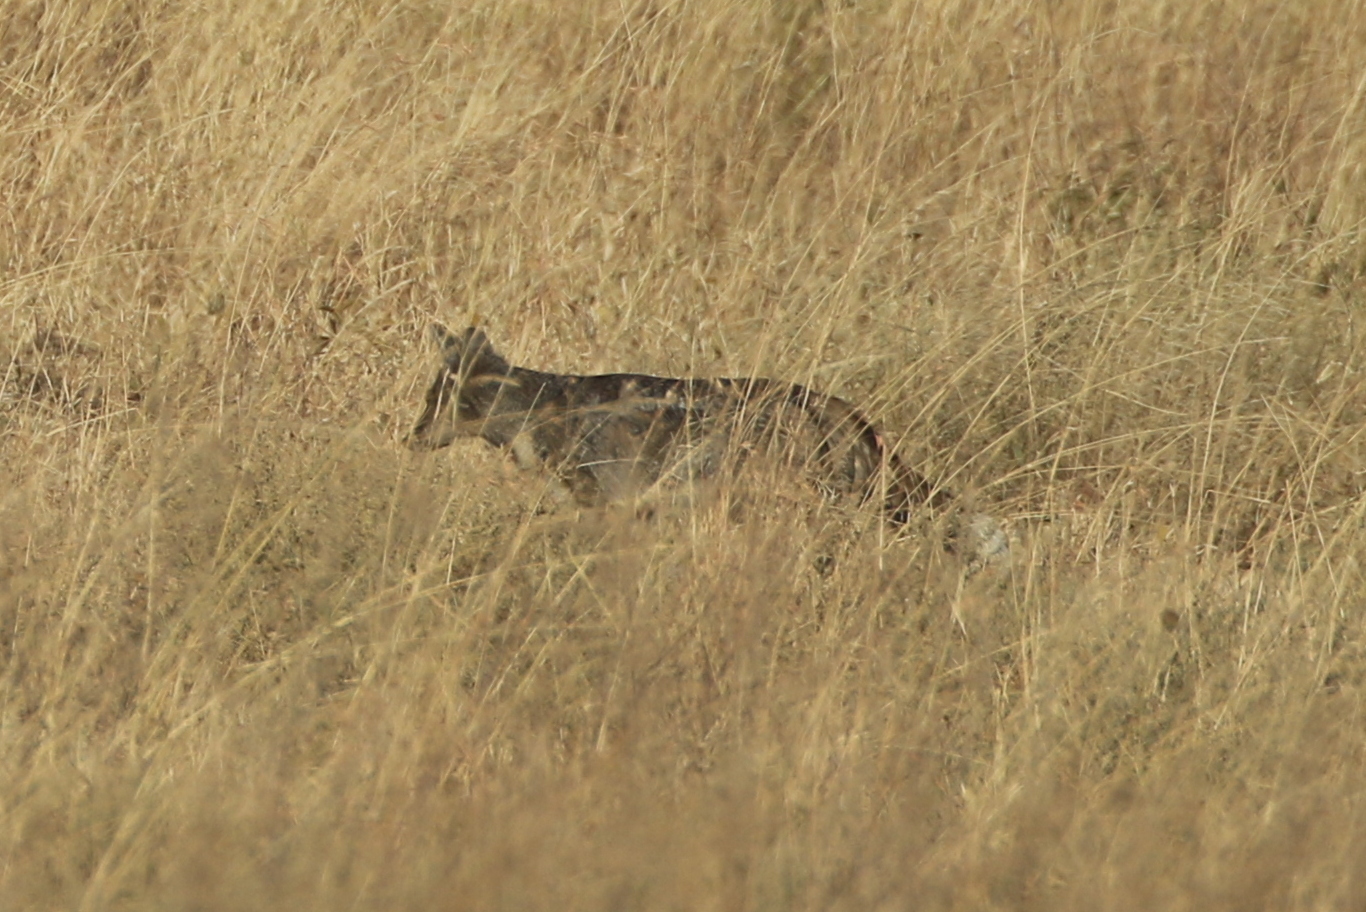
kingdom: Animalia
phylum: Chordata
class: Mammalia
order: Carnivora
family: Canidae
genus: Lupulella
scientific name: Lupulella
